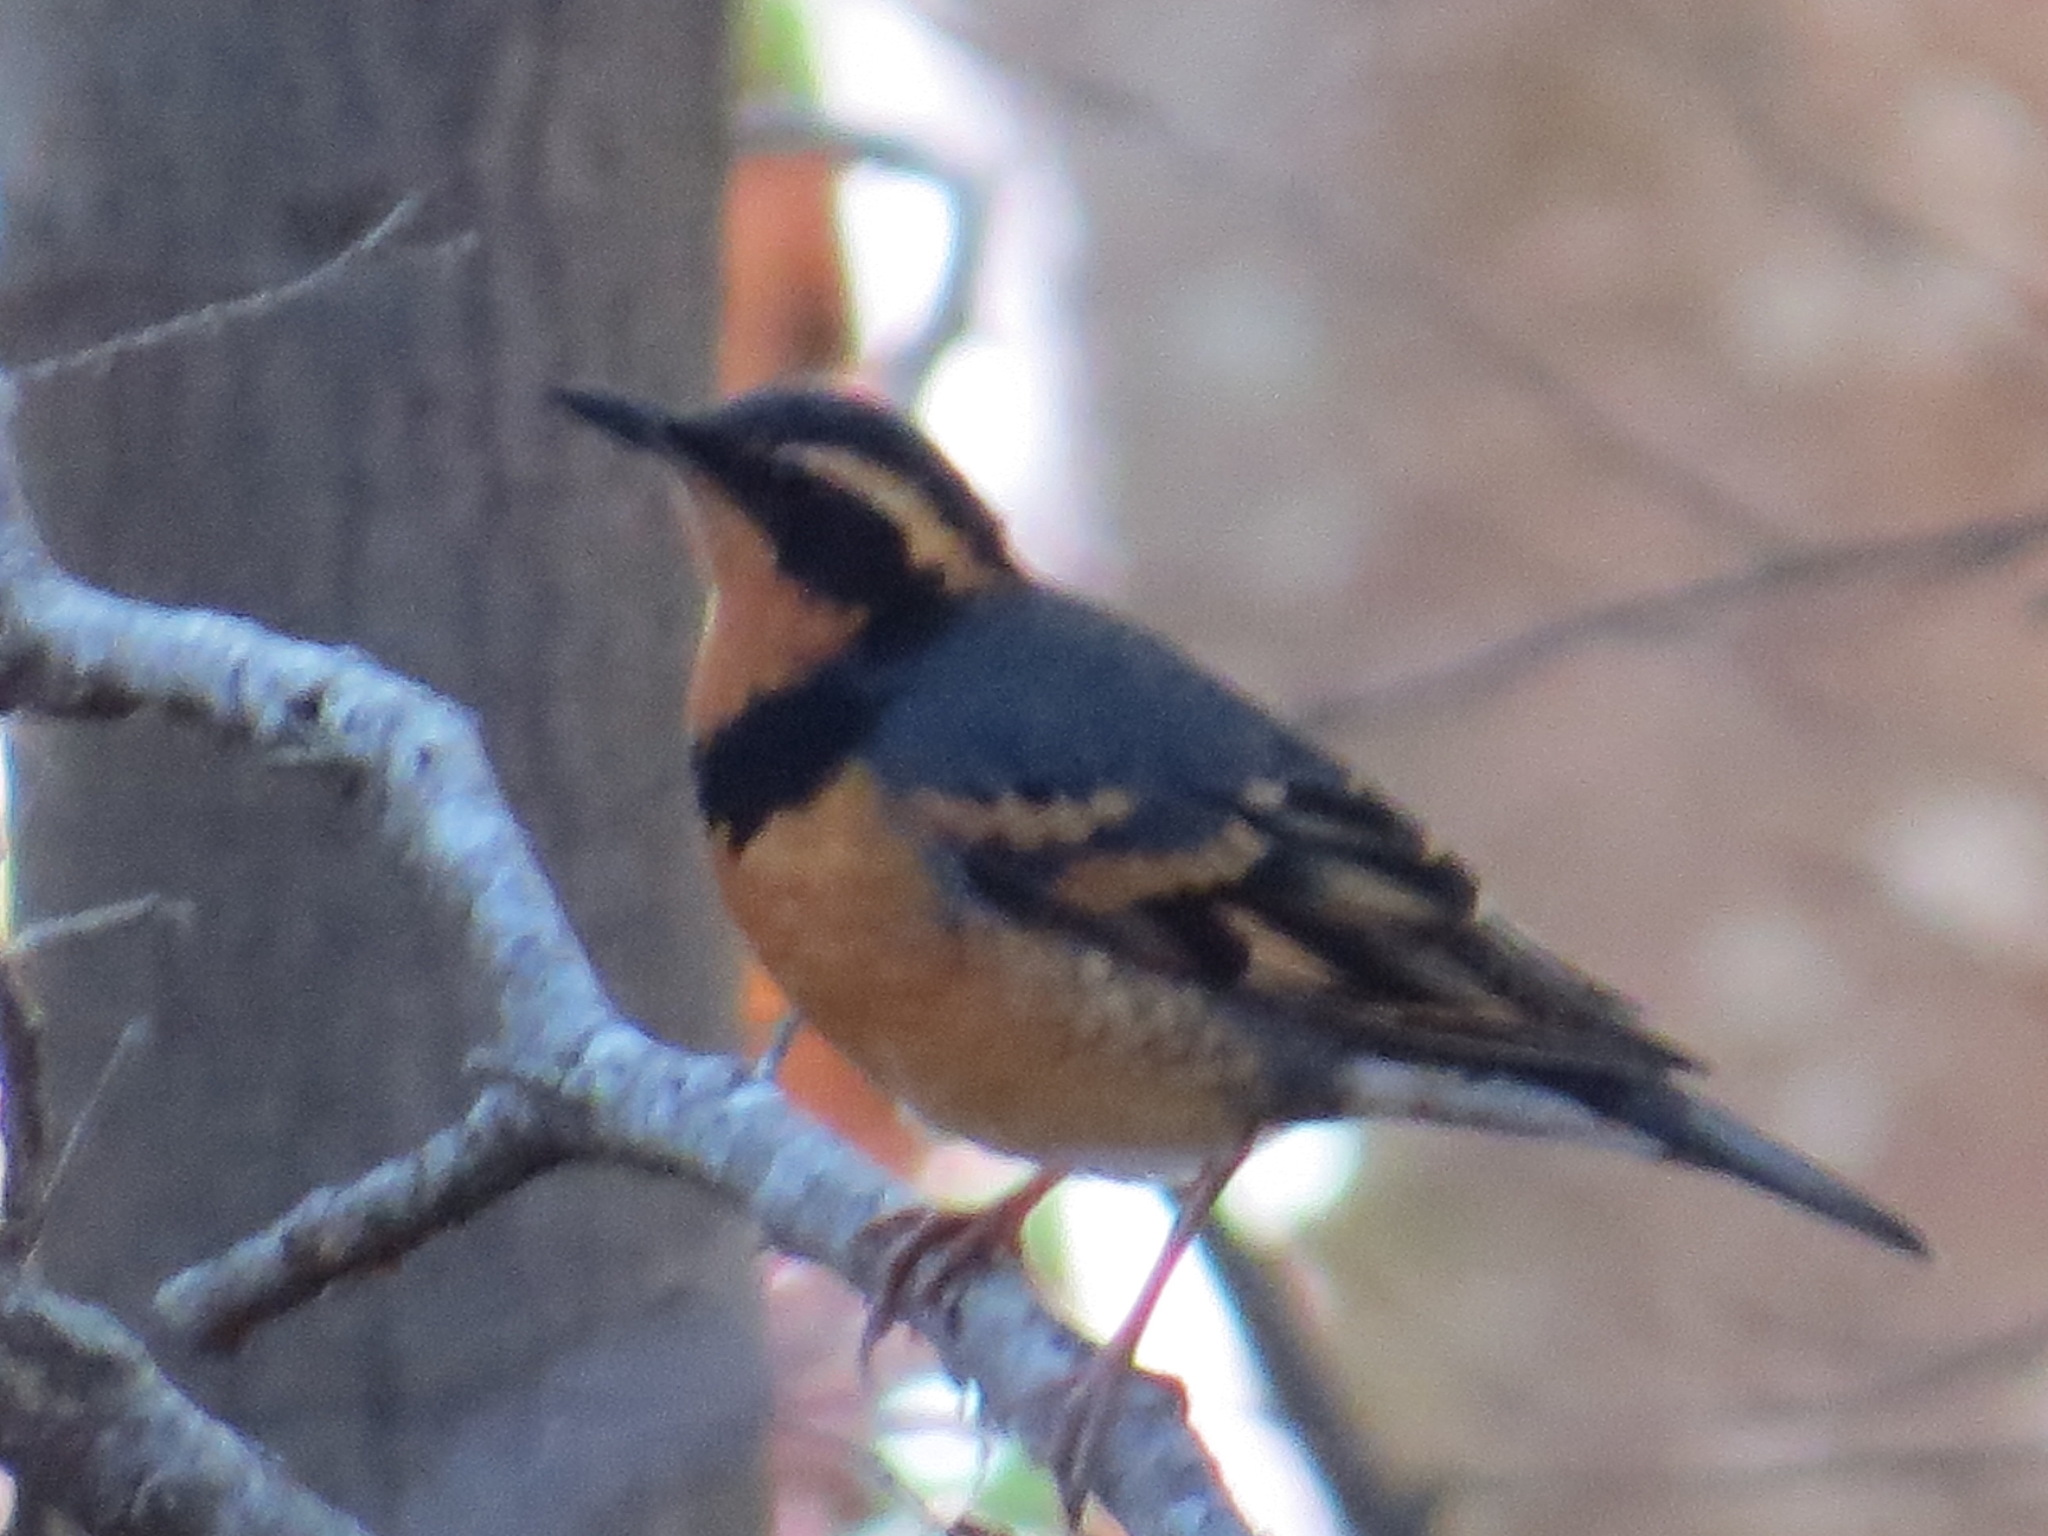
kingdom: Animalia
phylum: Chordata
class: Aves
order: Passeriformes
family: Turdidae
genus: Ixoreus
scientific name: Ixoreus naevius
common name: Varied thrush
